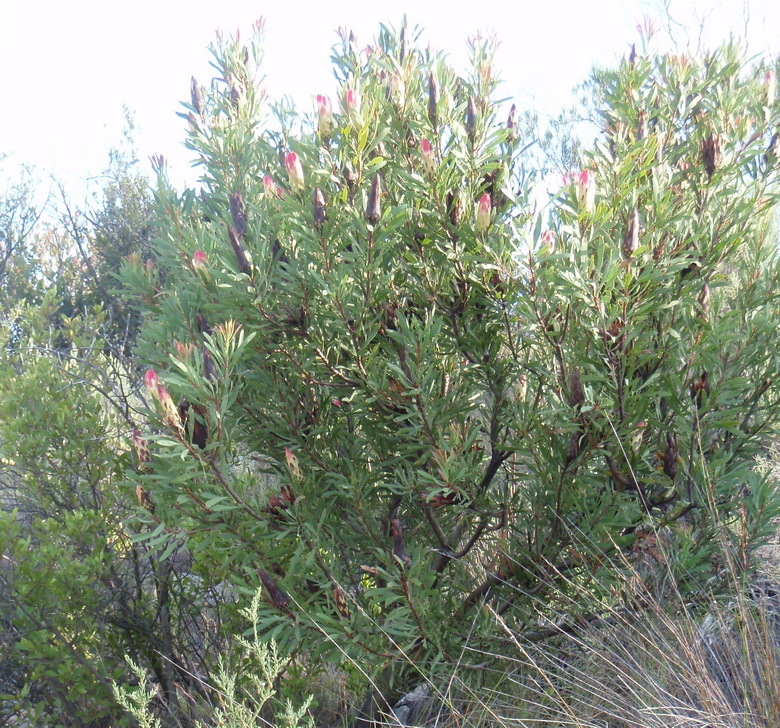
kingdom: Plantae
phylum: Tracheophyta
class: Magnoliopsida
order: Proteales
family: Proteaceae
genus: Protea
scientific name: Protea repens
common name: Sugarbush
